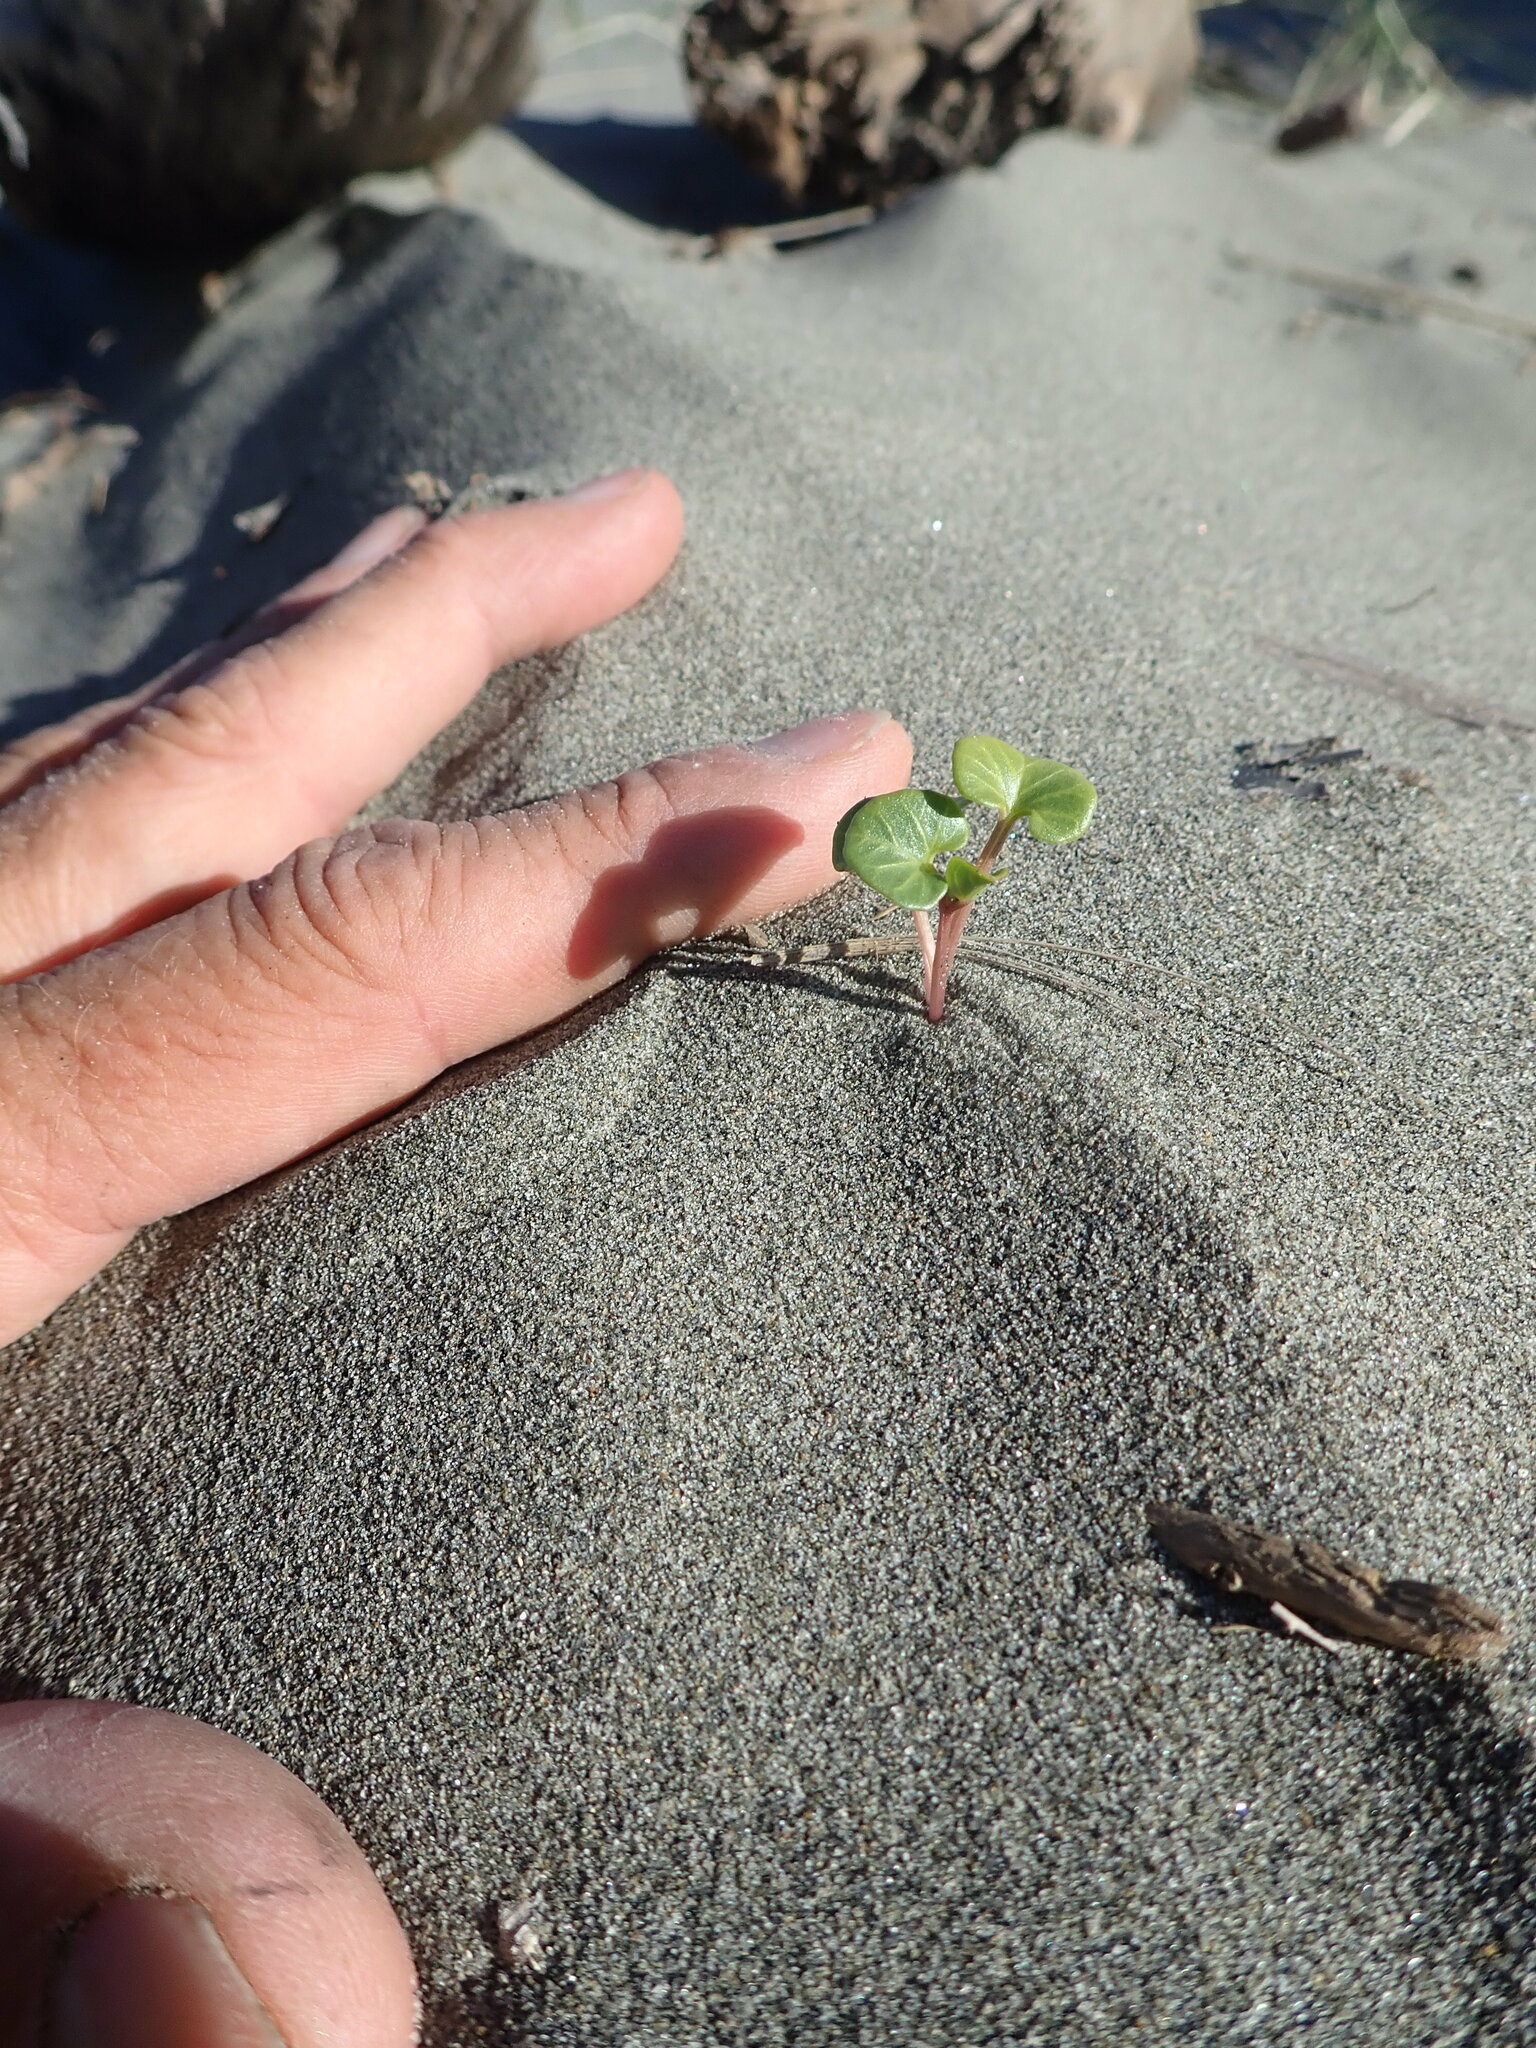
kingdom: Plantae
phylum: Tracheophyta
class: Magnoliopsida
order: Solanales
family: Convolvulaceae
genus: Calystegia
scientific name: Calystegia soldanella
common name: Sea bindweed
